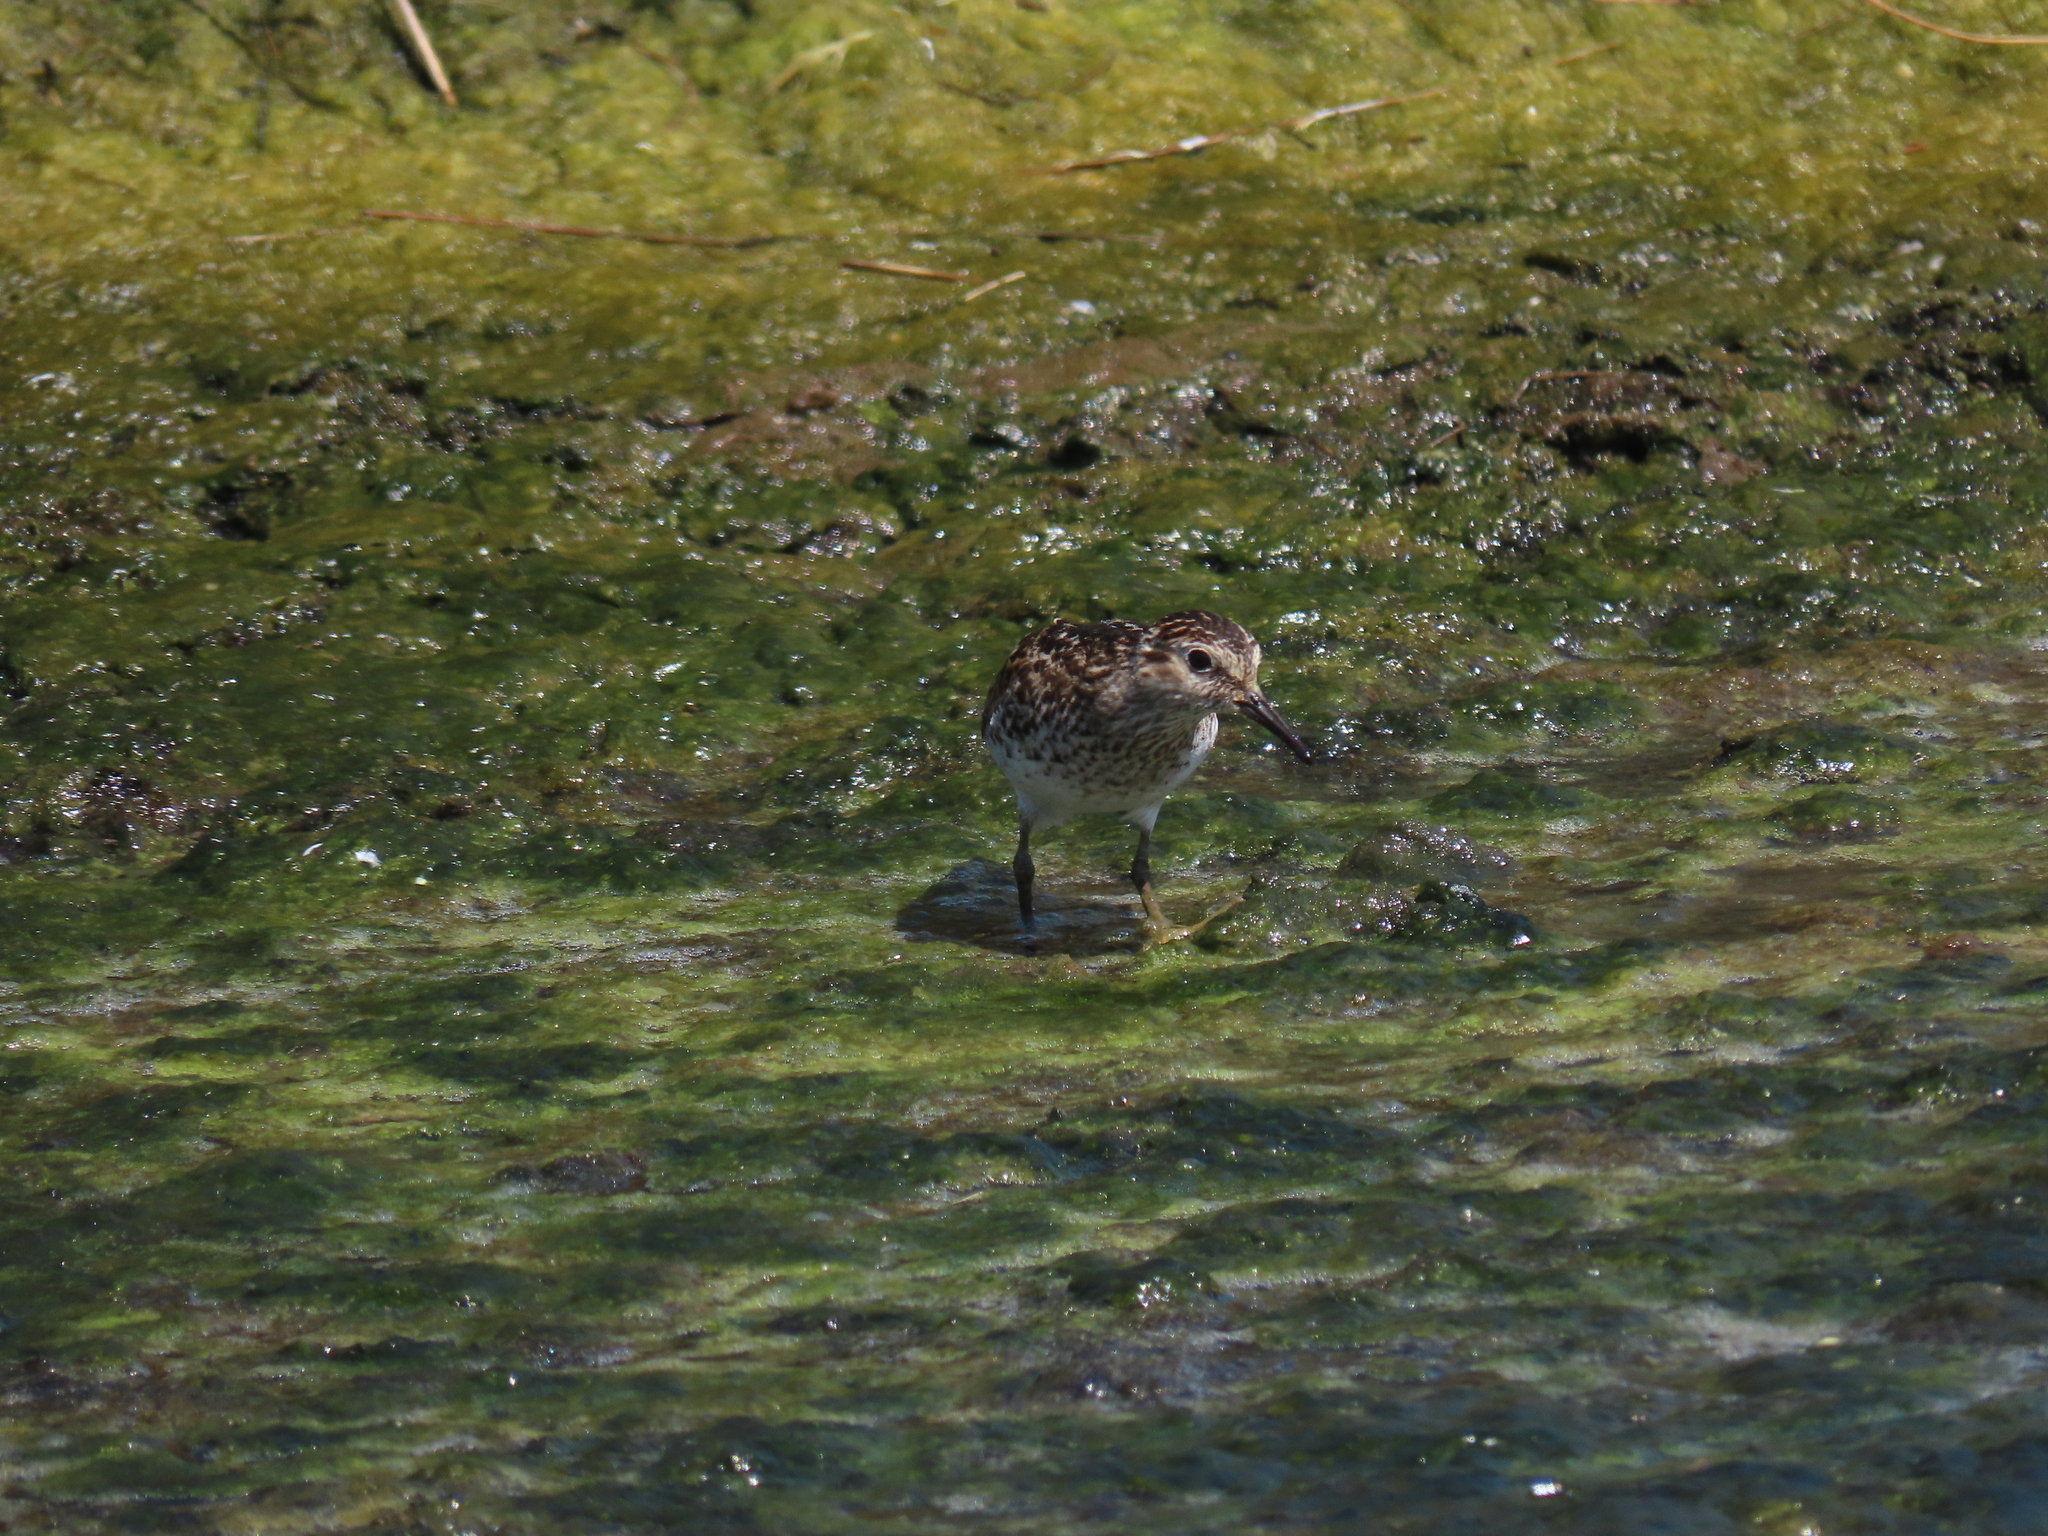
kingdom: Animalia
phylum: Chordata
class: Aves
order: Charadriiformes
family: Scolopacidae
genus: Calidris
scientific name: Calidris minutilla
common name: Least sandpiper
